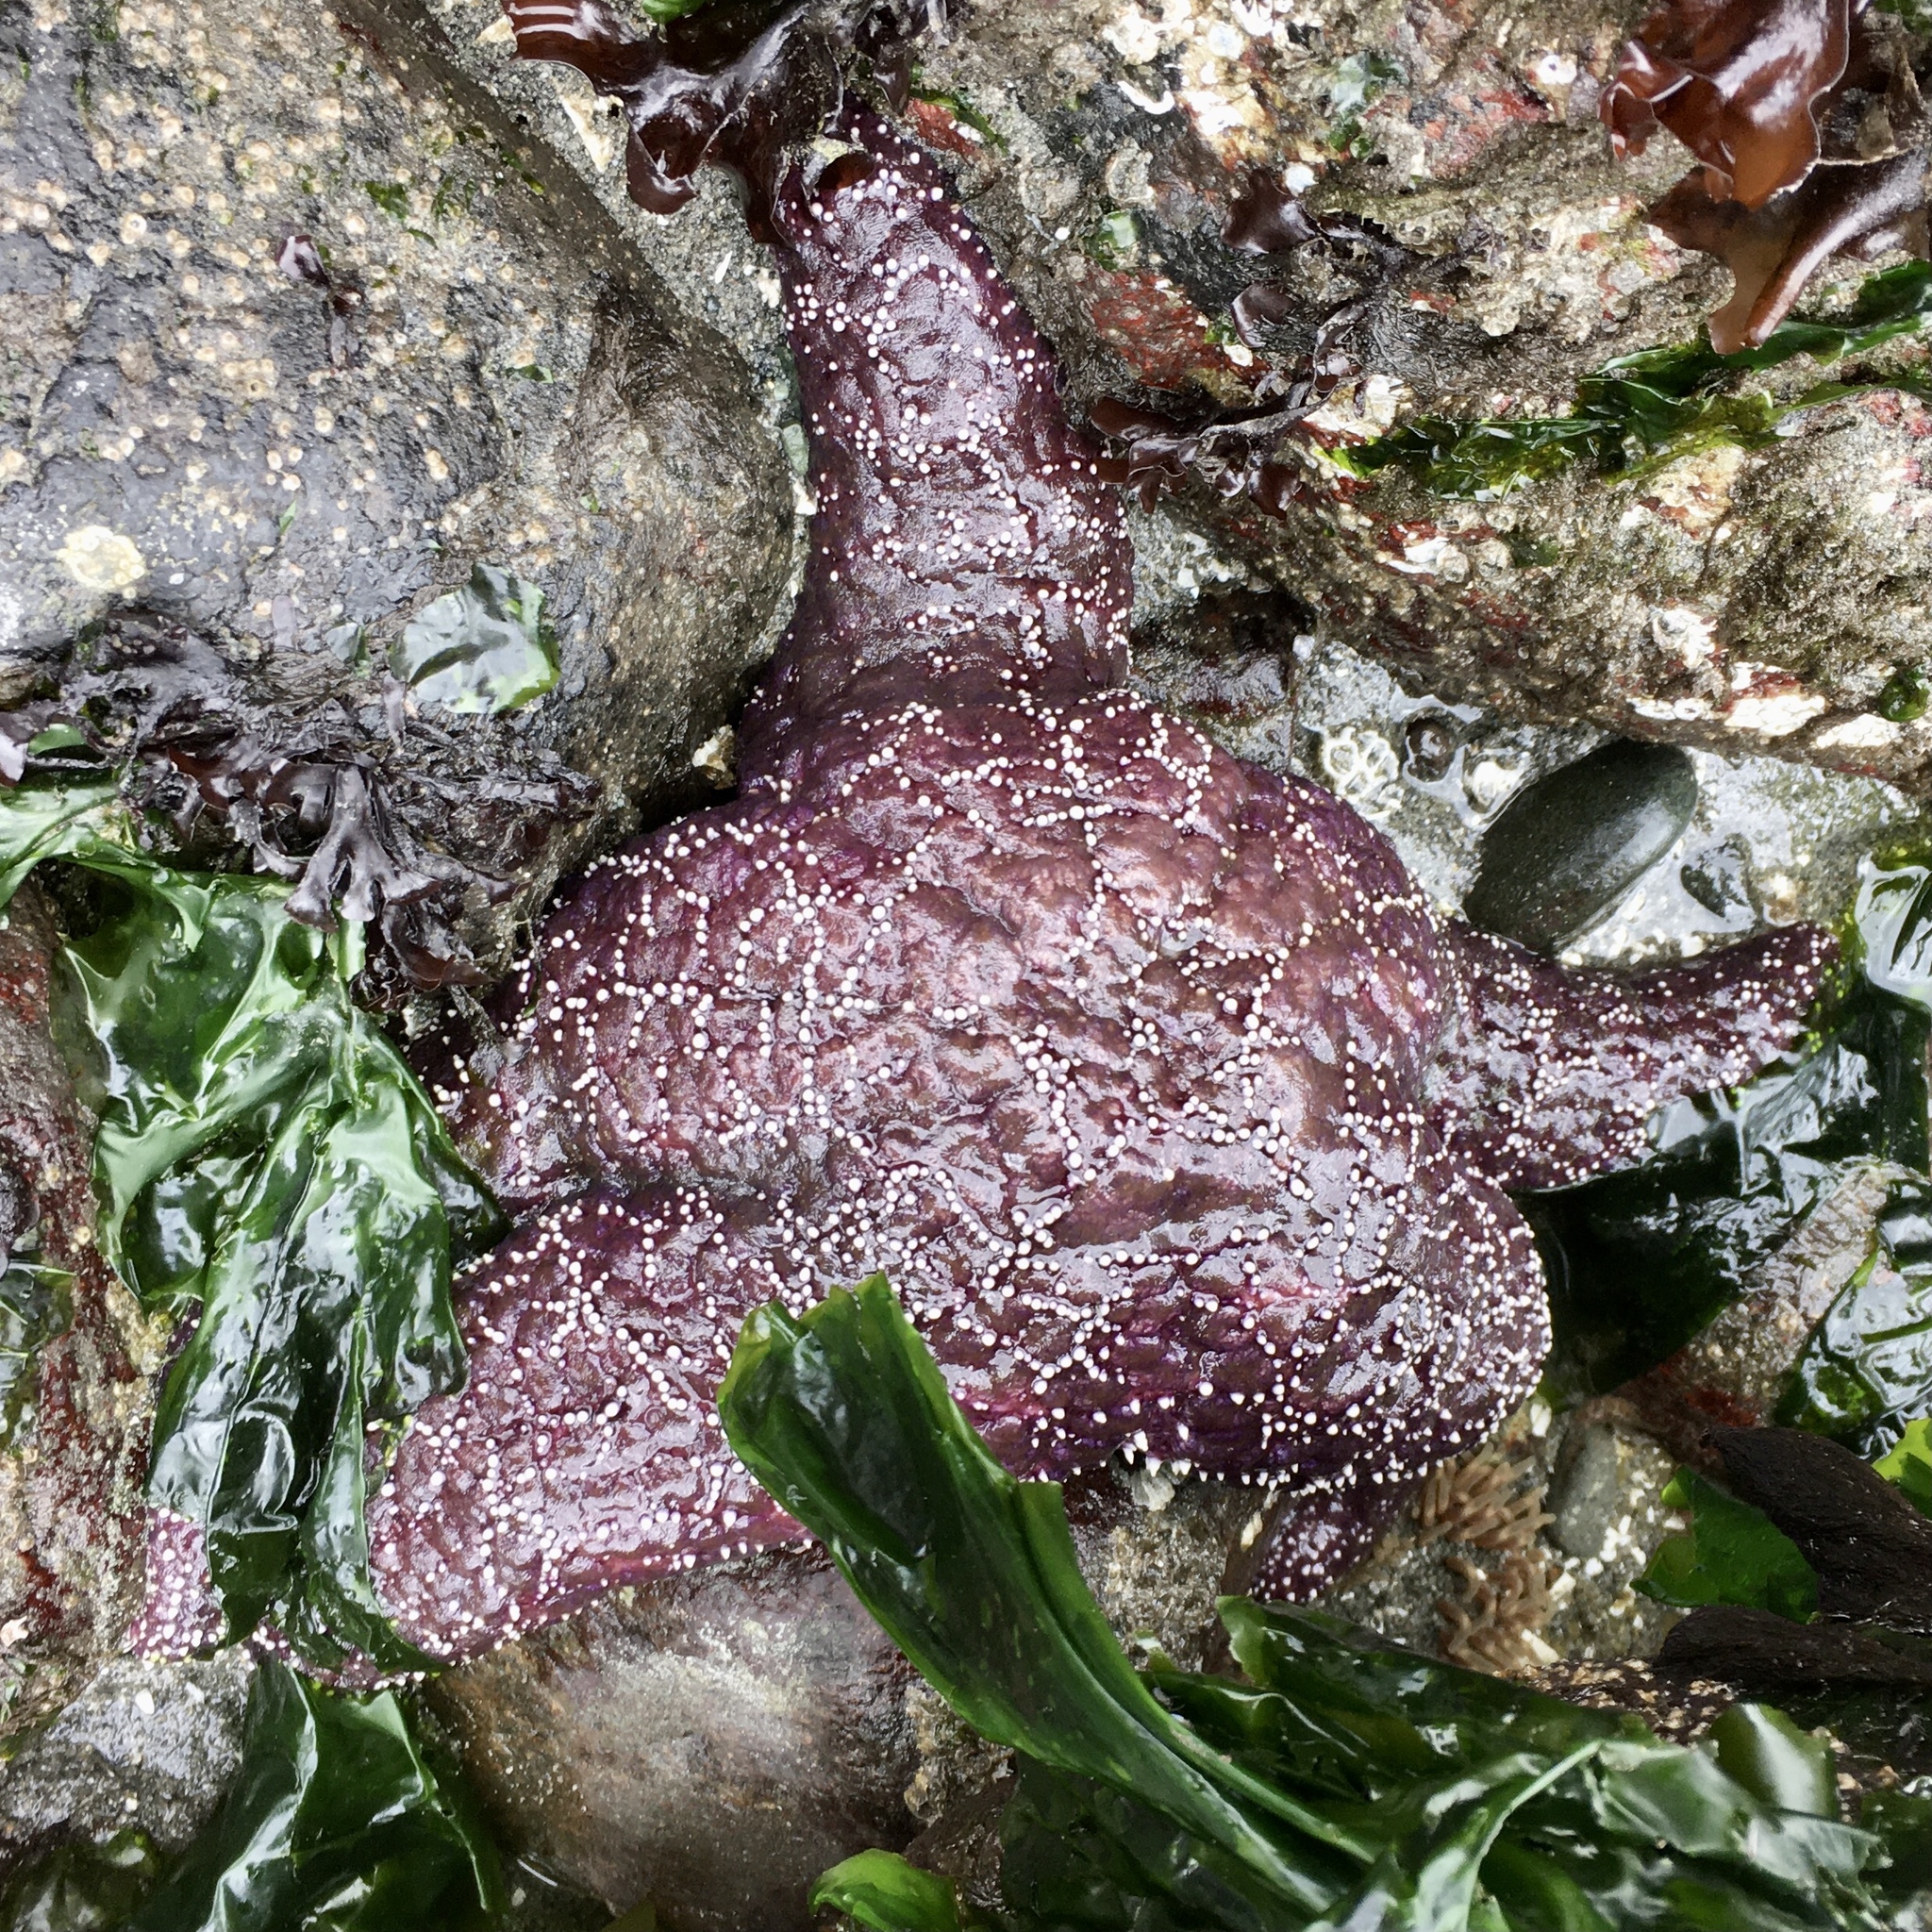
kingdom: Animalia
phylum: Echinodermata
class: Asteroidea
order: Forcipulatida
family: Asteriidae
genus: Pisaster
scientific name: Pisaster ochraceus
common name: Ochre stars
